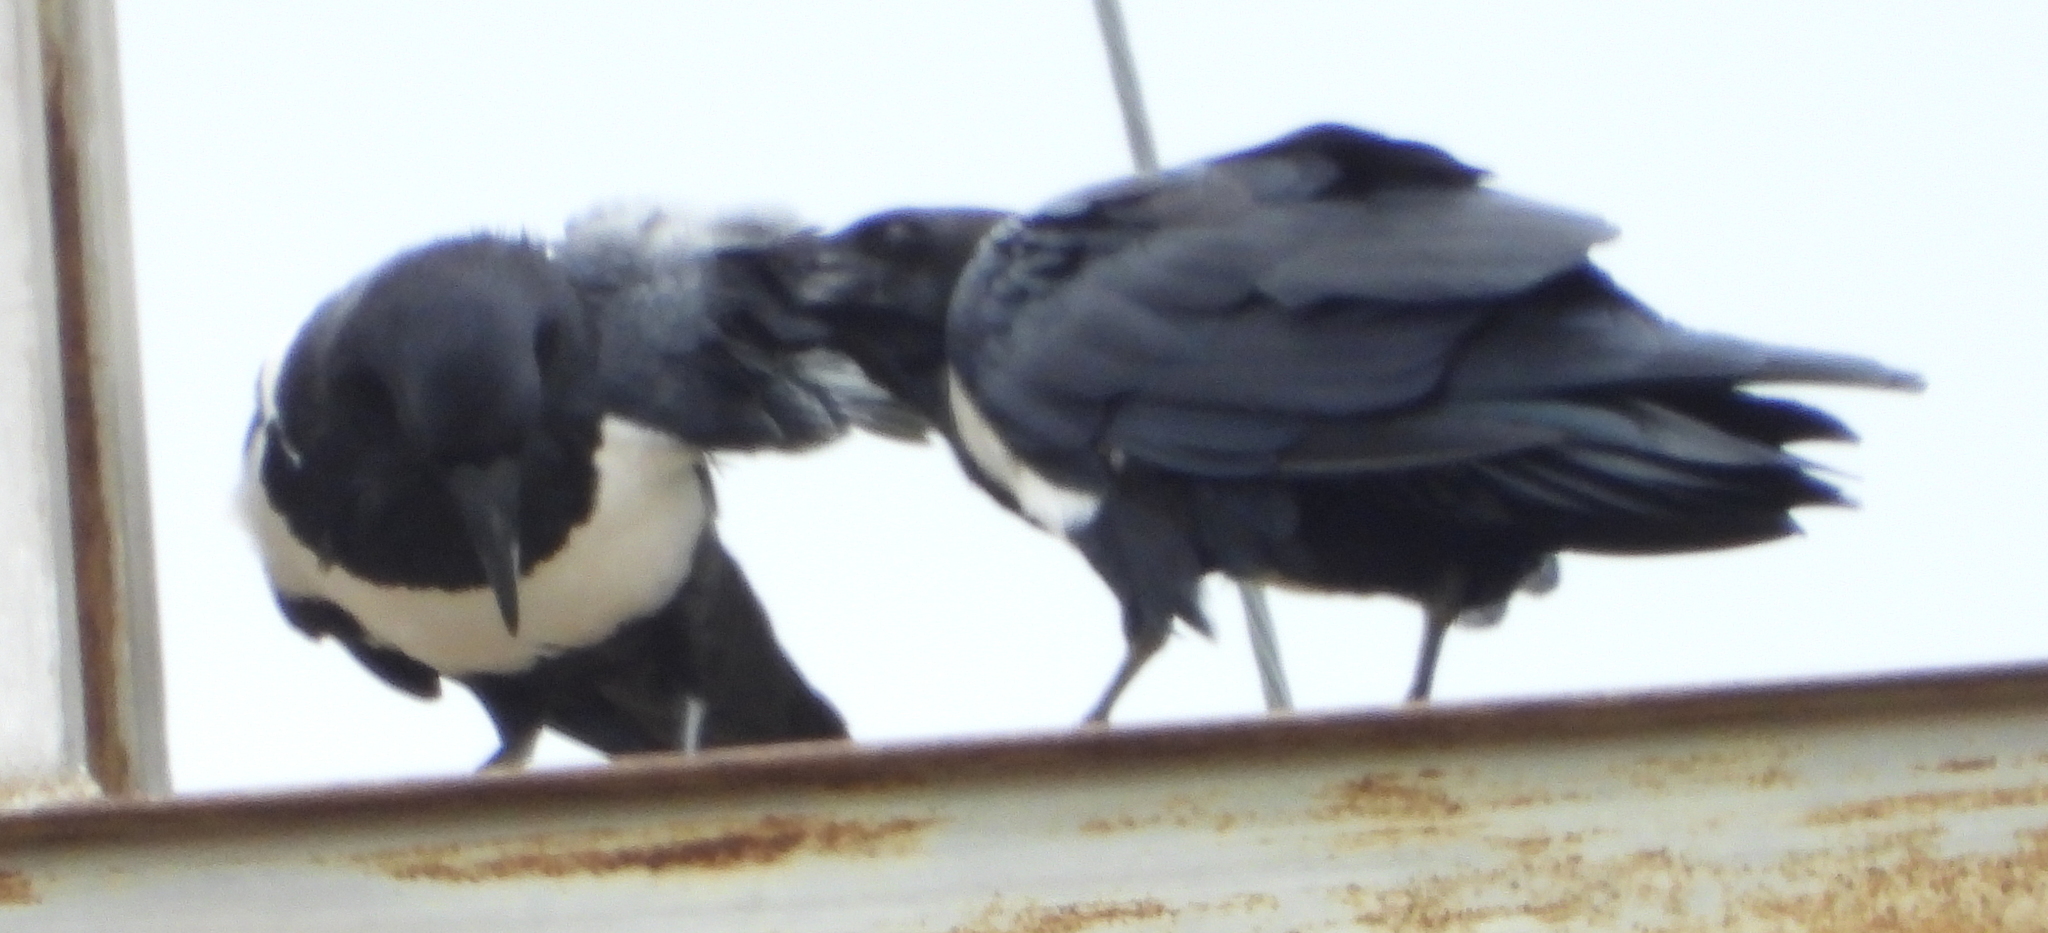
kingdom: Animalia
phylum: Chordata
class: Aves
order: Passeriformes
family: Corvidae
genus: Corvus
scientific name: Corvus albus
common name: Pied crow
